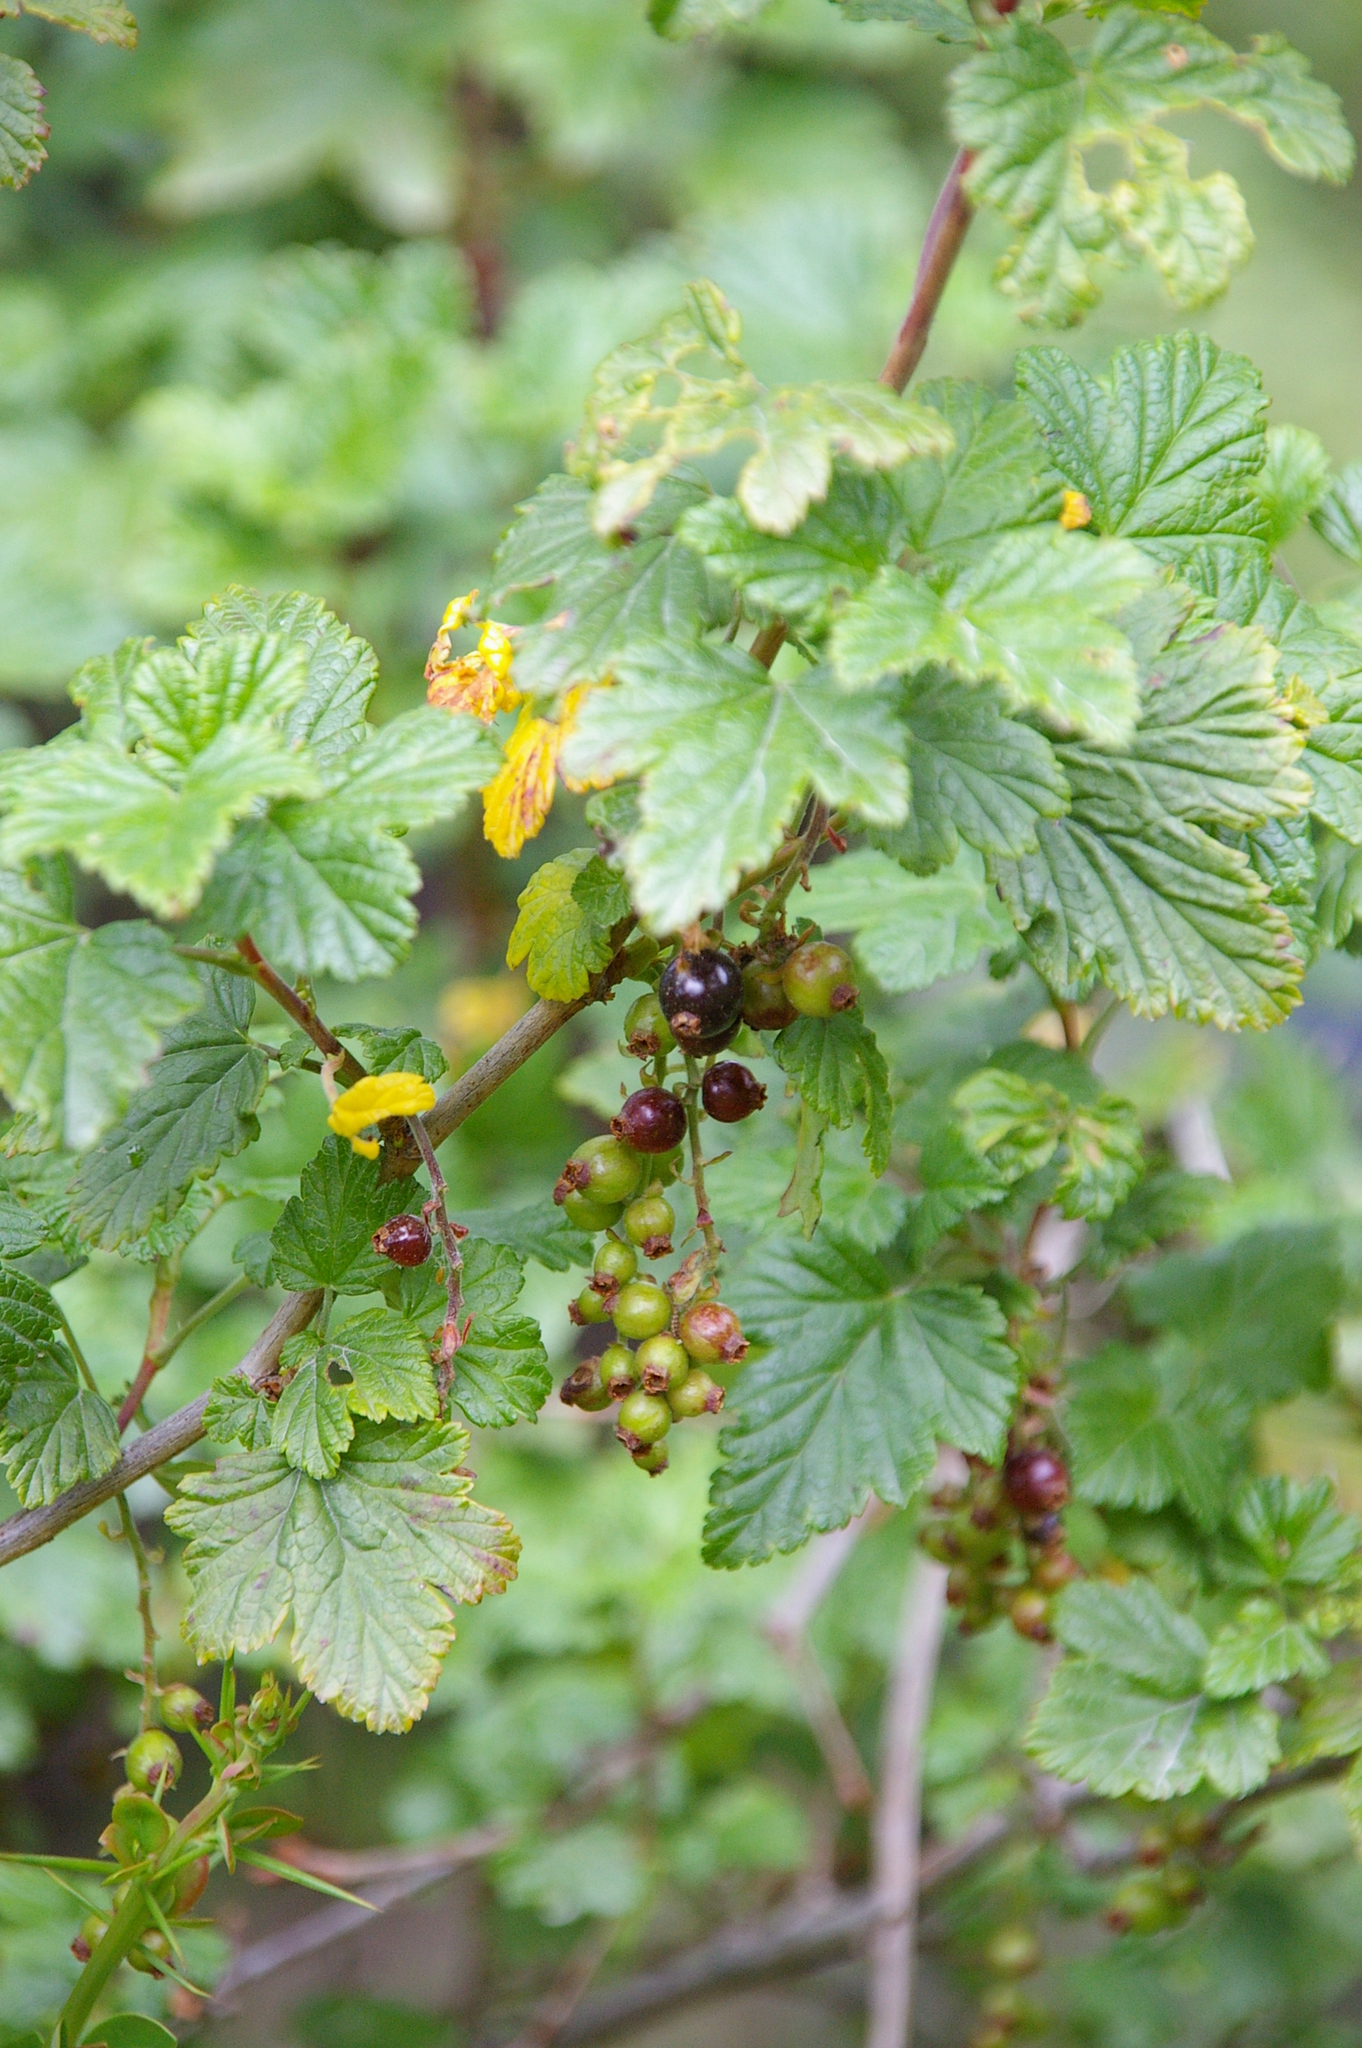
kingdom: Plantae
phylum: Tracheophyta
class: Magnoliopsida
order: Saxifragales
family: Grossulariaceae
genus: Ribes
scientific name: Ribes magellanicum
